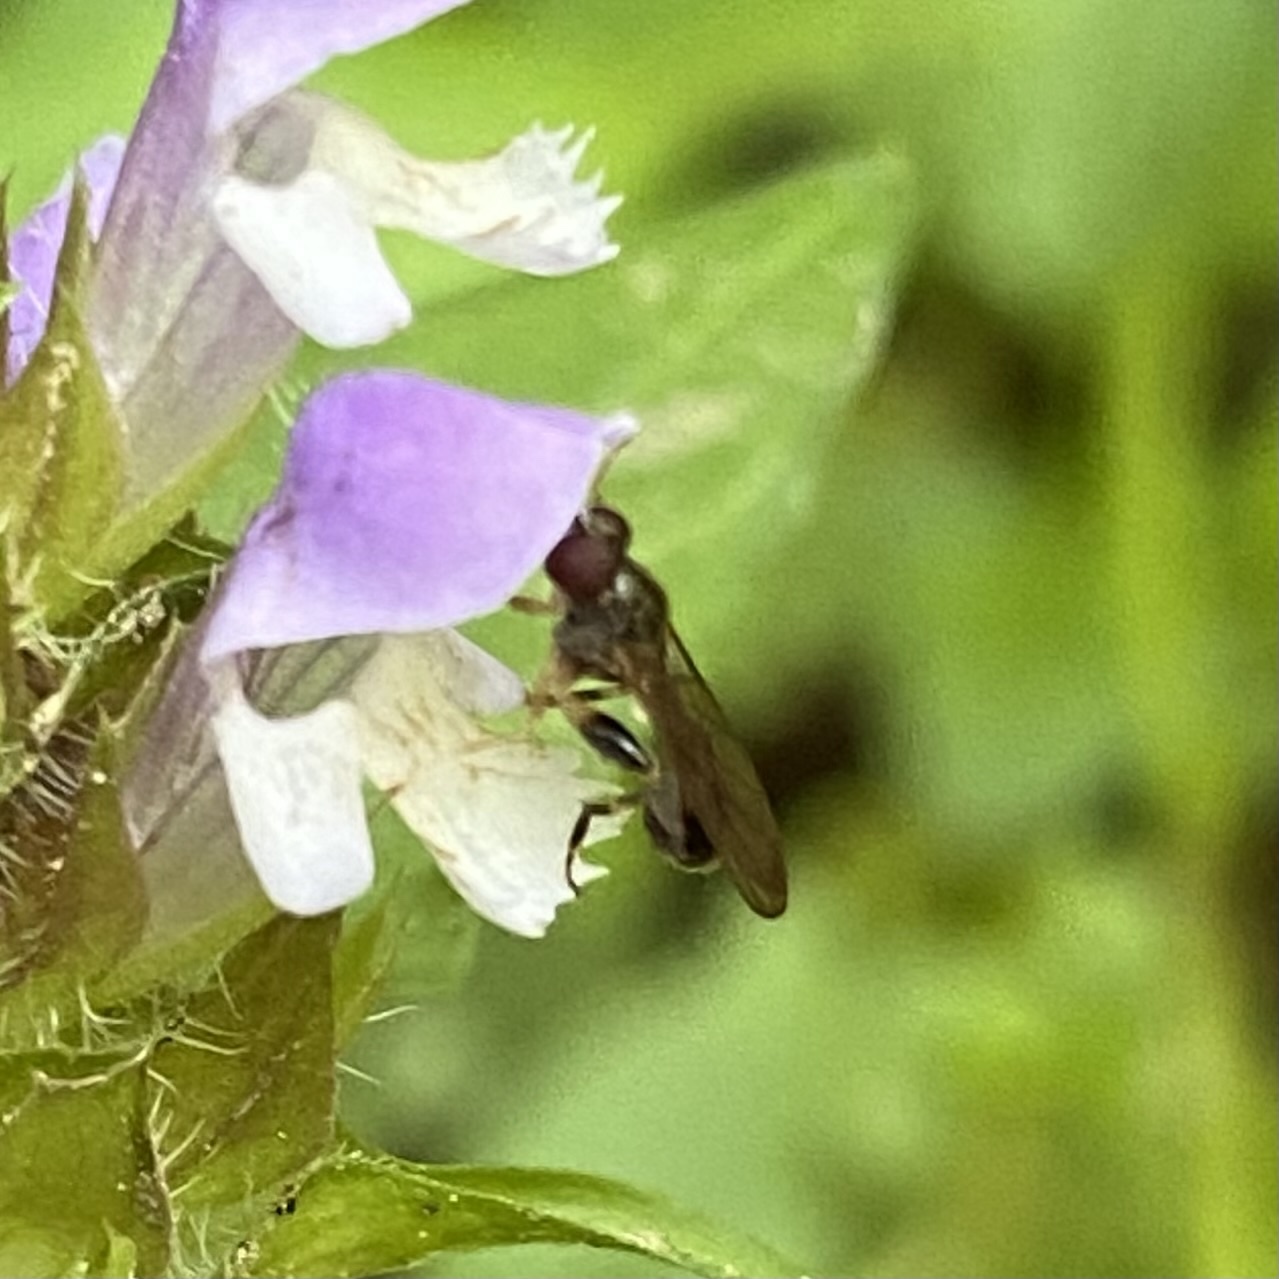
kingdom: Animalia
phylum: Arthropoda
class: Insecta
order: Diptera
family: Syrphidae
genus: Sphegina
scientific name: Sphegina
